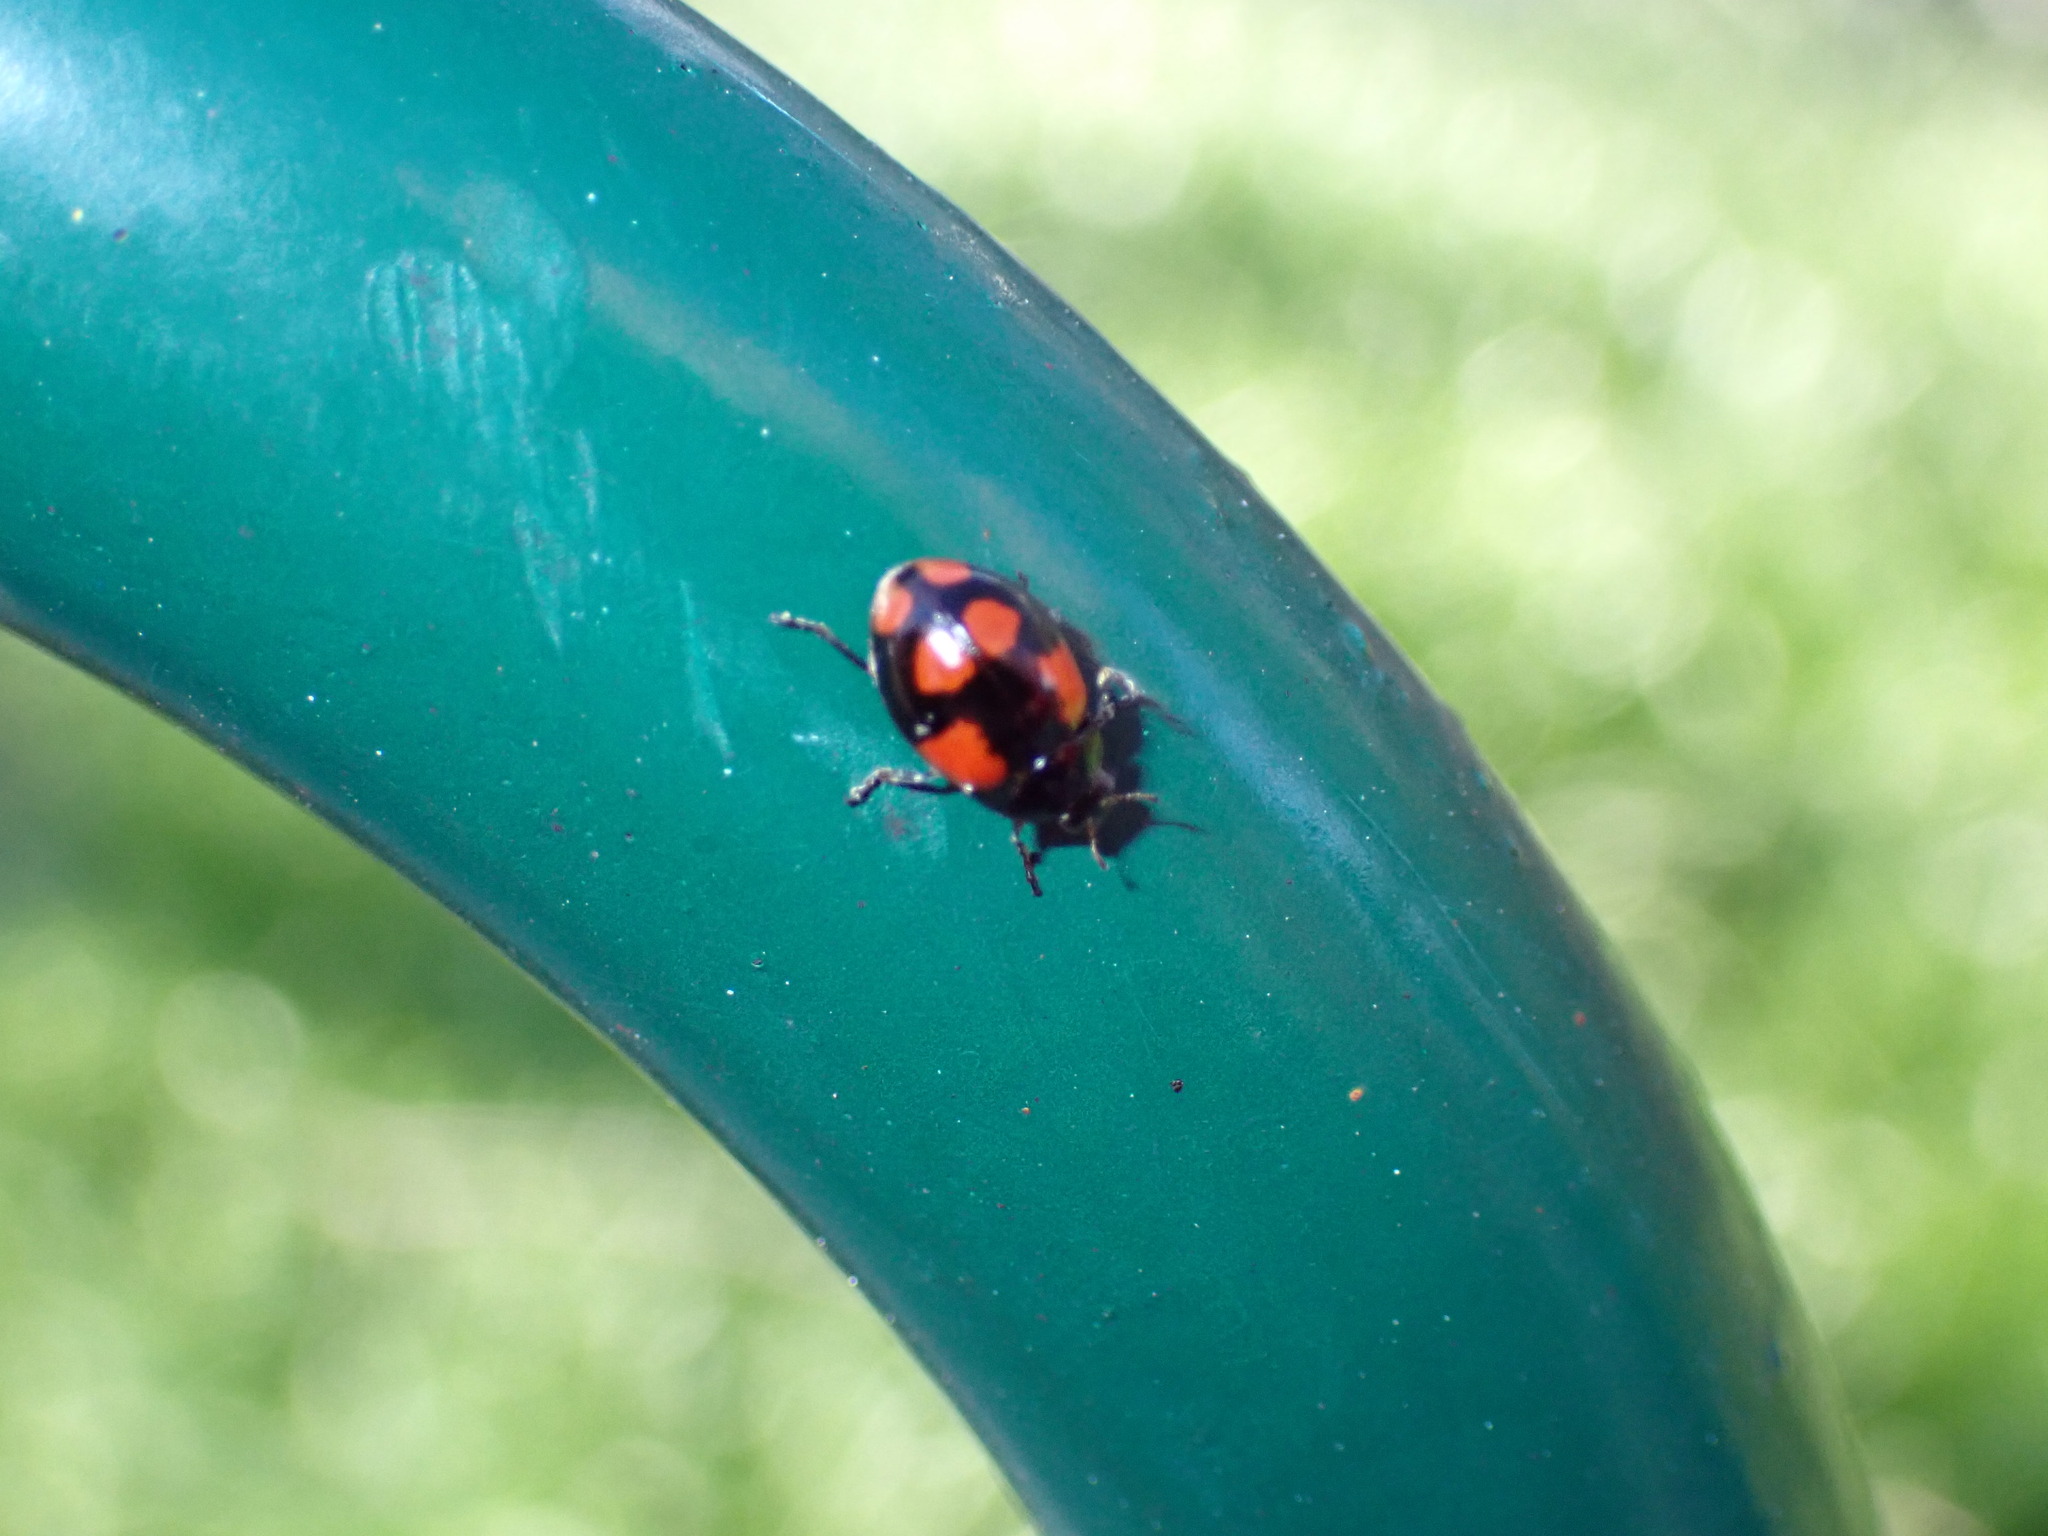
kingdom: Animalia
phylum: Arthropoda
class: Insecta
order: Coleoptera
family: Coccinellidae
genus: Adalia
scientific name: Adalia bipunctata
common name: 2-spot ladybird
